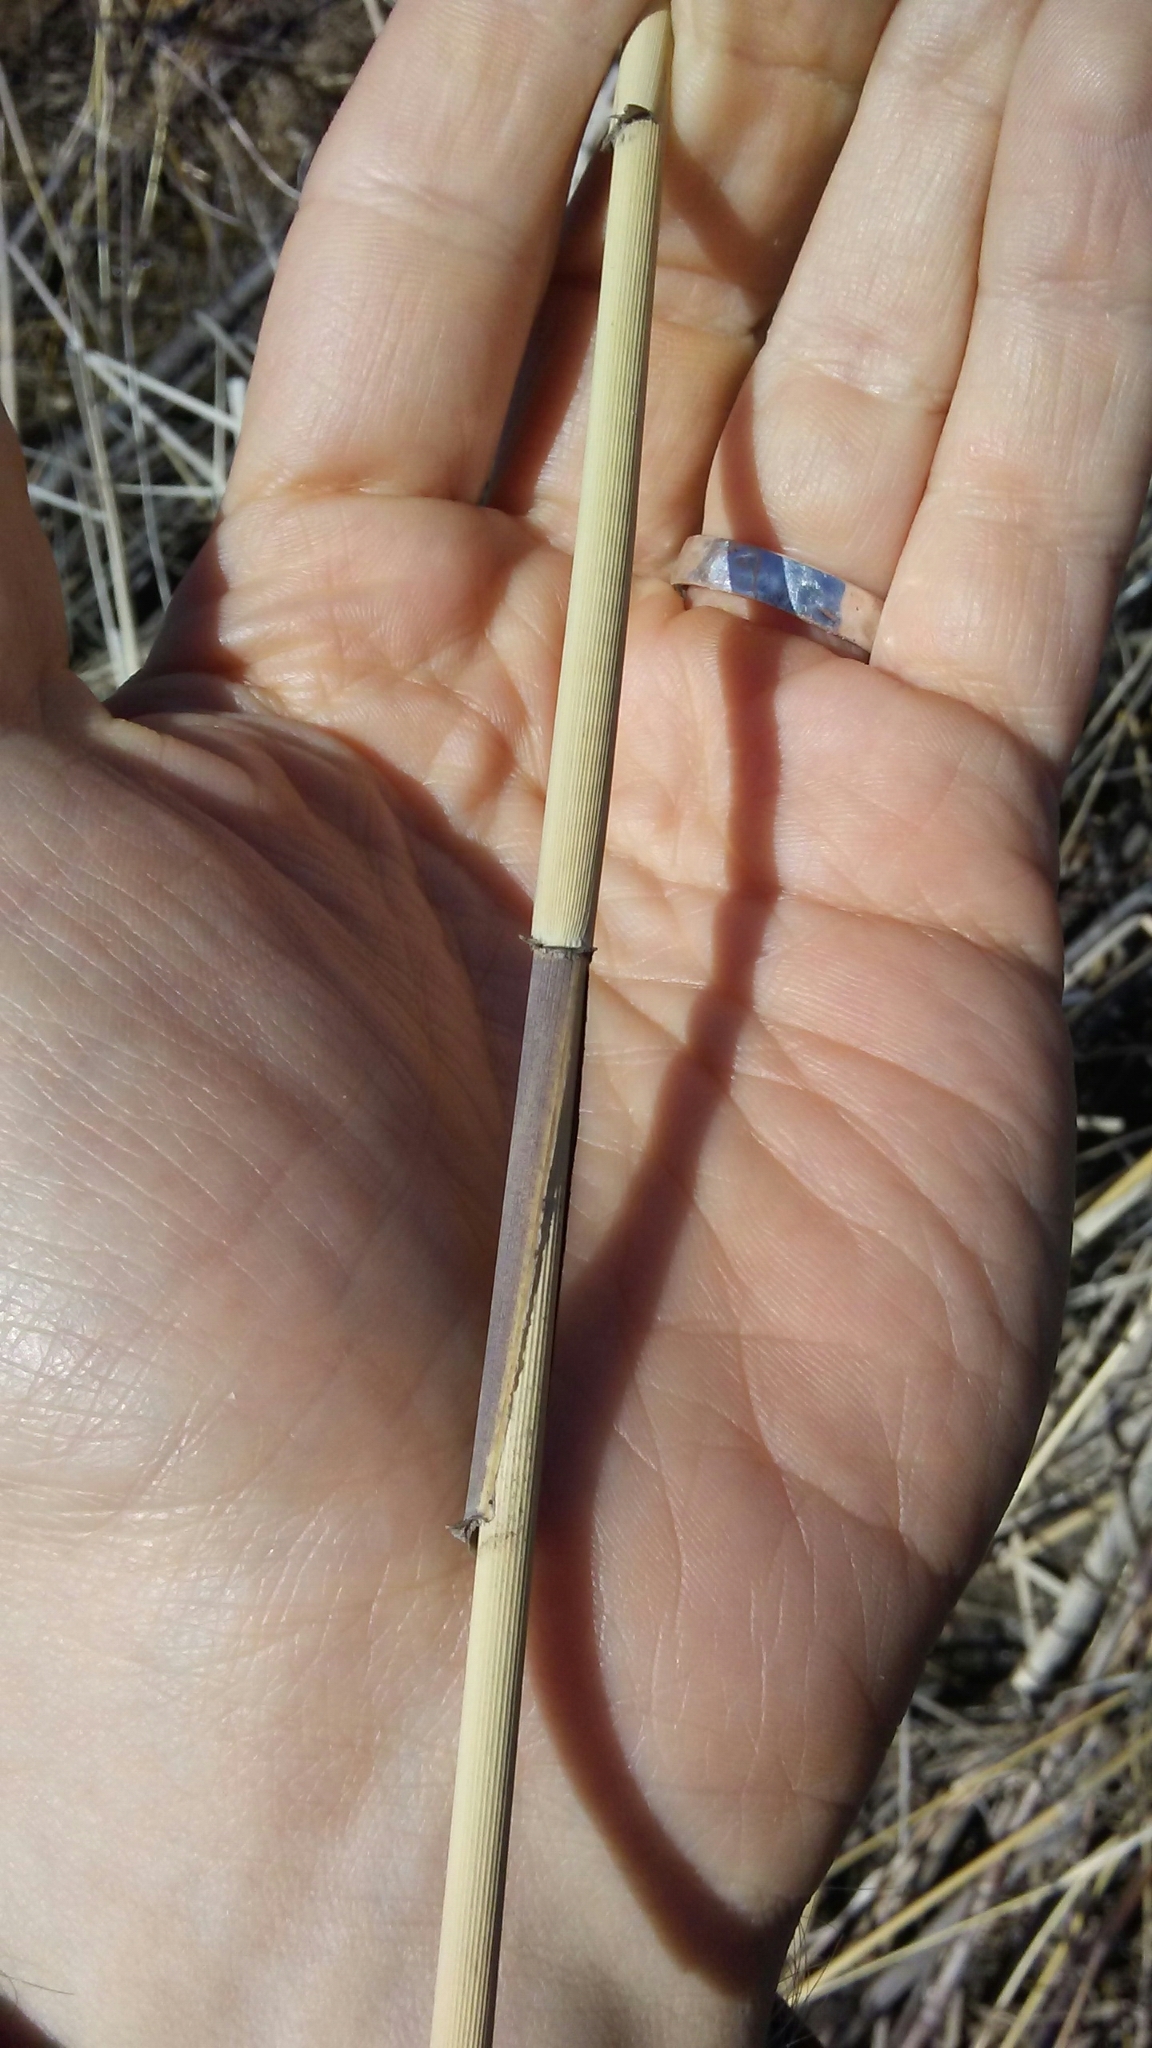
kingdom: Plantae
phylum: Tracheophyta
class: Liliopsida
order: Poales
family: Poaceae
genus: Phragmites
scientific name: Phragmites australis
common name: Common reed
